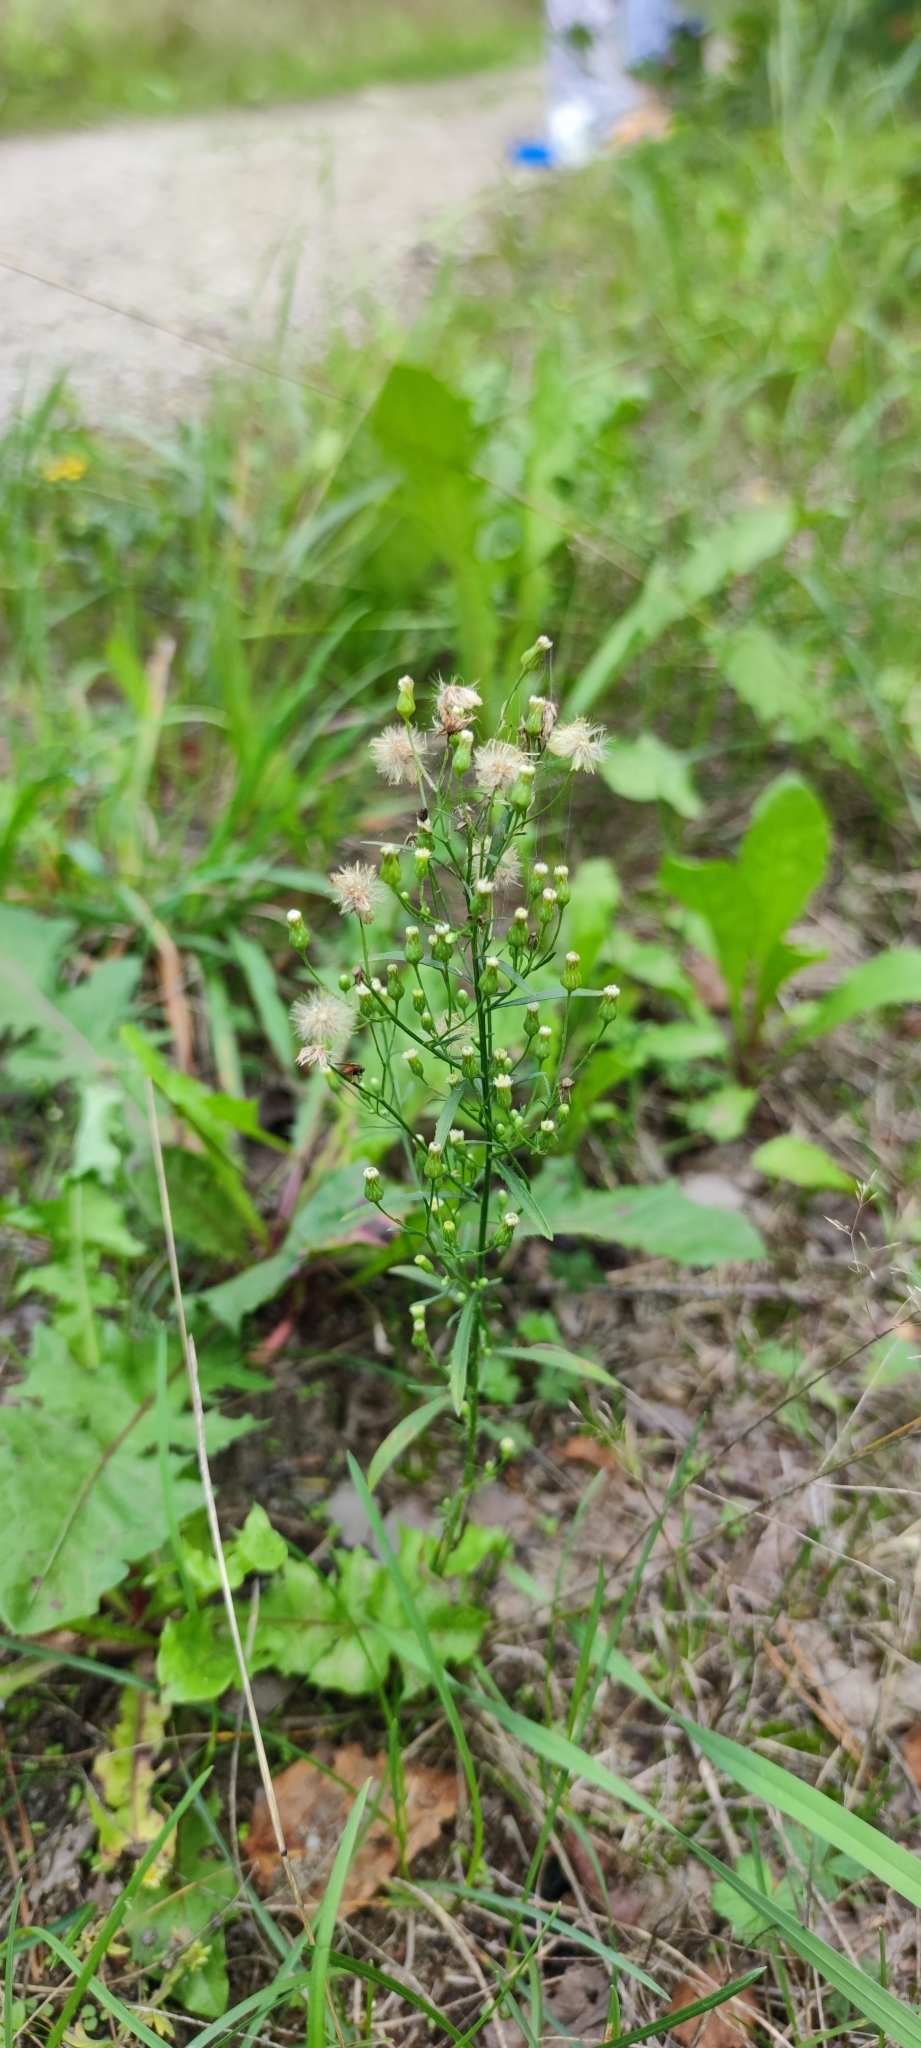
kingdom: Plantae
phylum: Tracheophyta
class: Magnoliopsida
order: Asterales
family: Asteraceae
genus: Erigeron
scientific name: Erigeron canadensis
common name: Canadian fleabane
